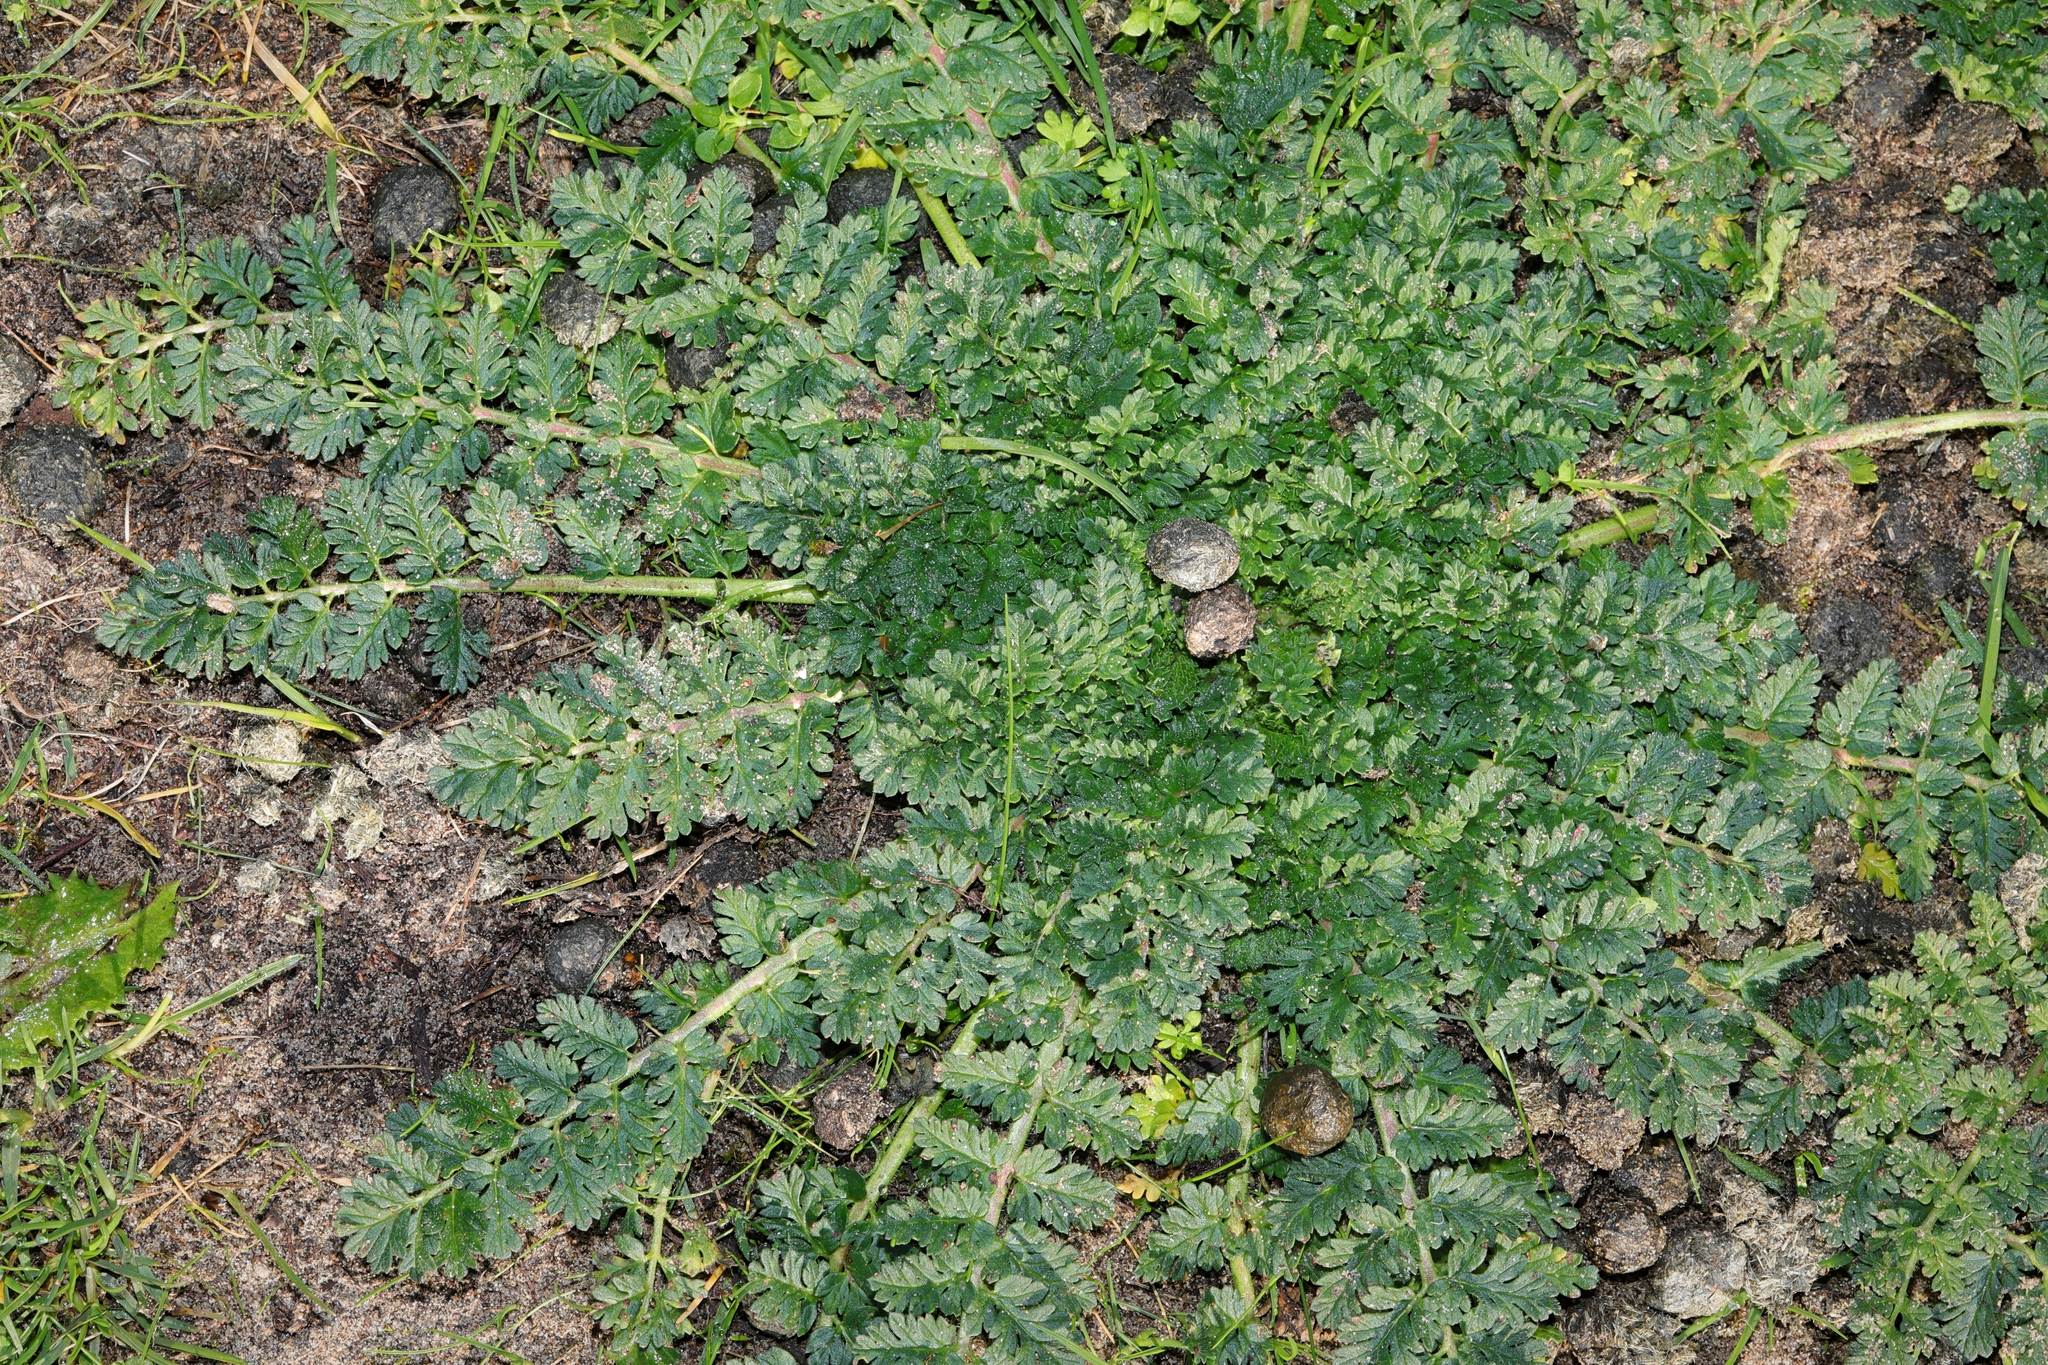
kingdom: Plantae
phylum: Tracheophyta
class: Magnoliopsida
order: Geraniales
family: Geraniaceae
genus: Erodium
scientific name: Erodium cicutarium
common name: Common stork's-bill
